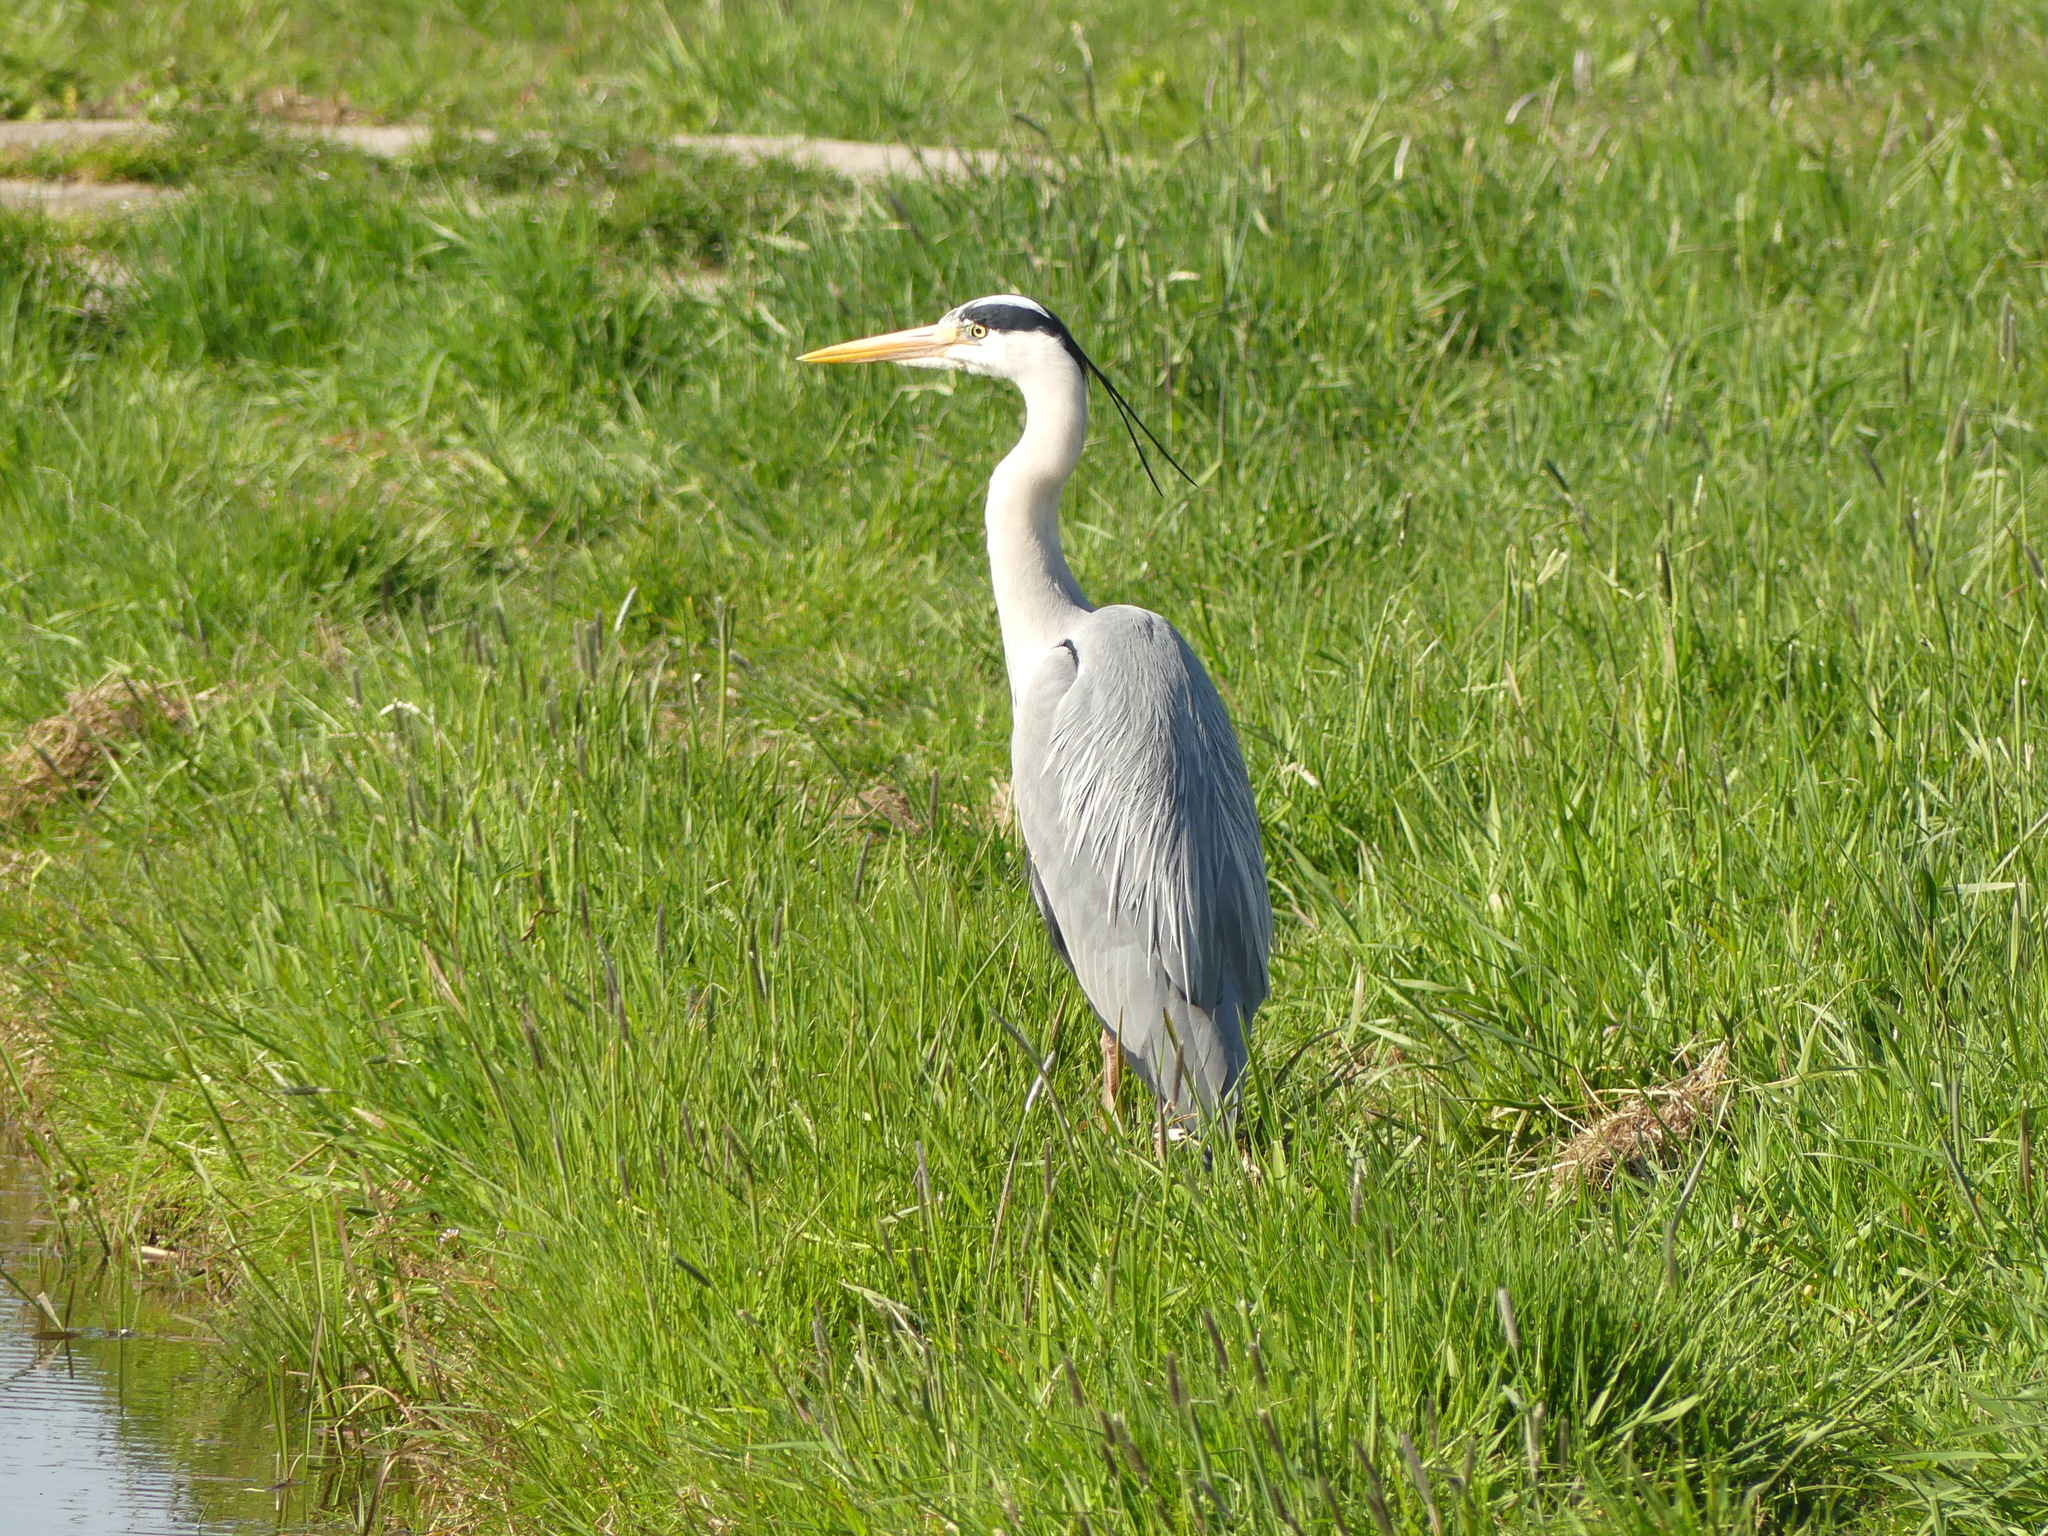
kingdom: Animalia
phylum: Chordata
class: Aves
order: Pelecaniformes
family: Ardeidae
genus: Ardea
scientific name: Ardea cinerea
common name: Grey heron
